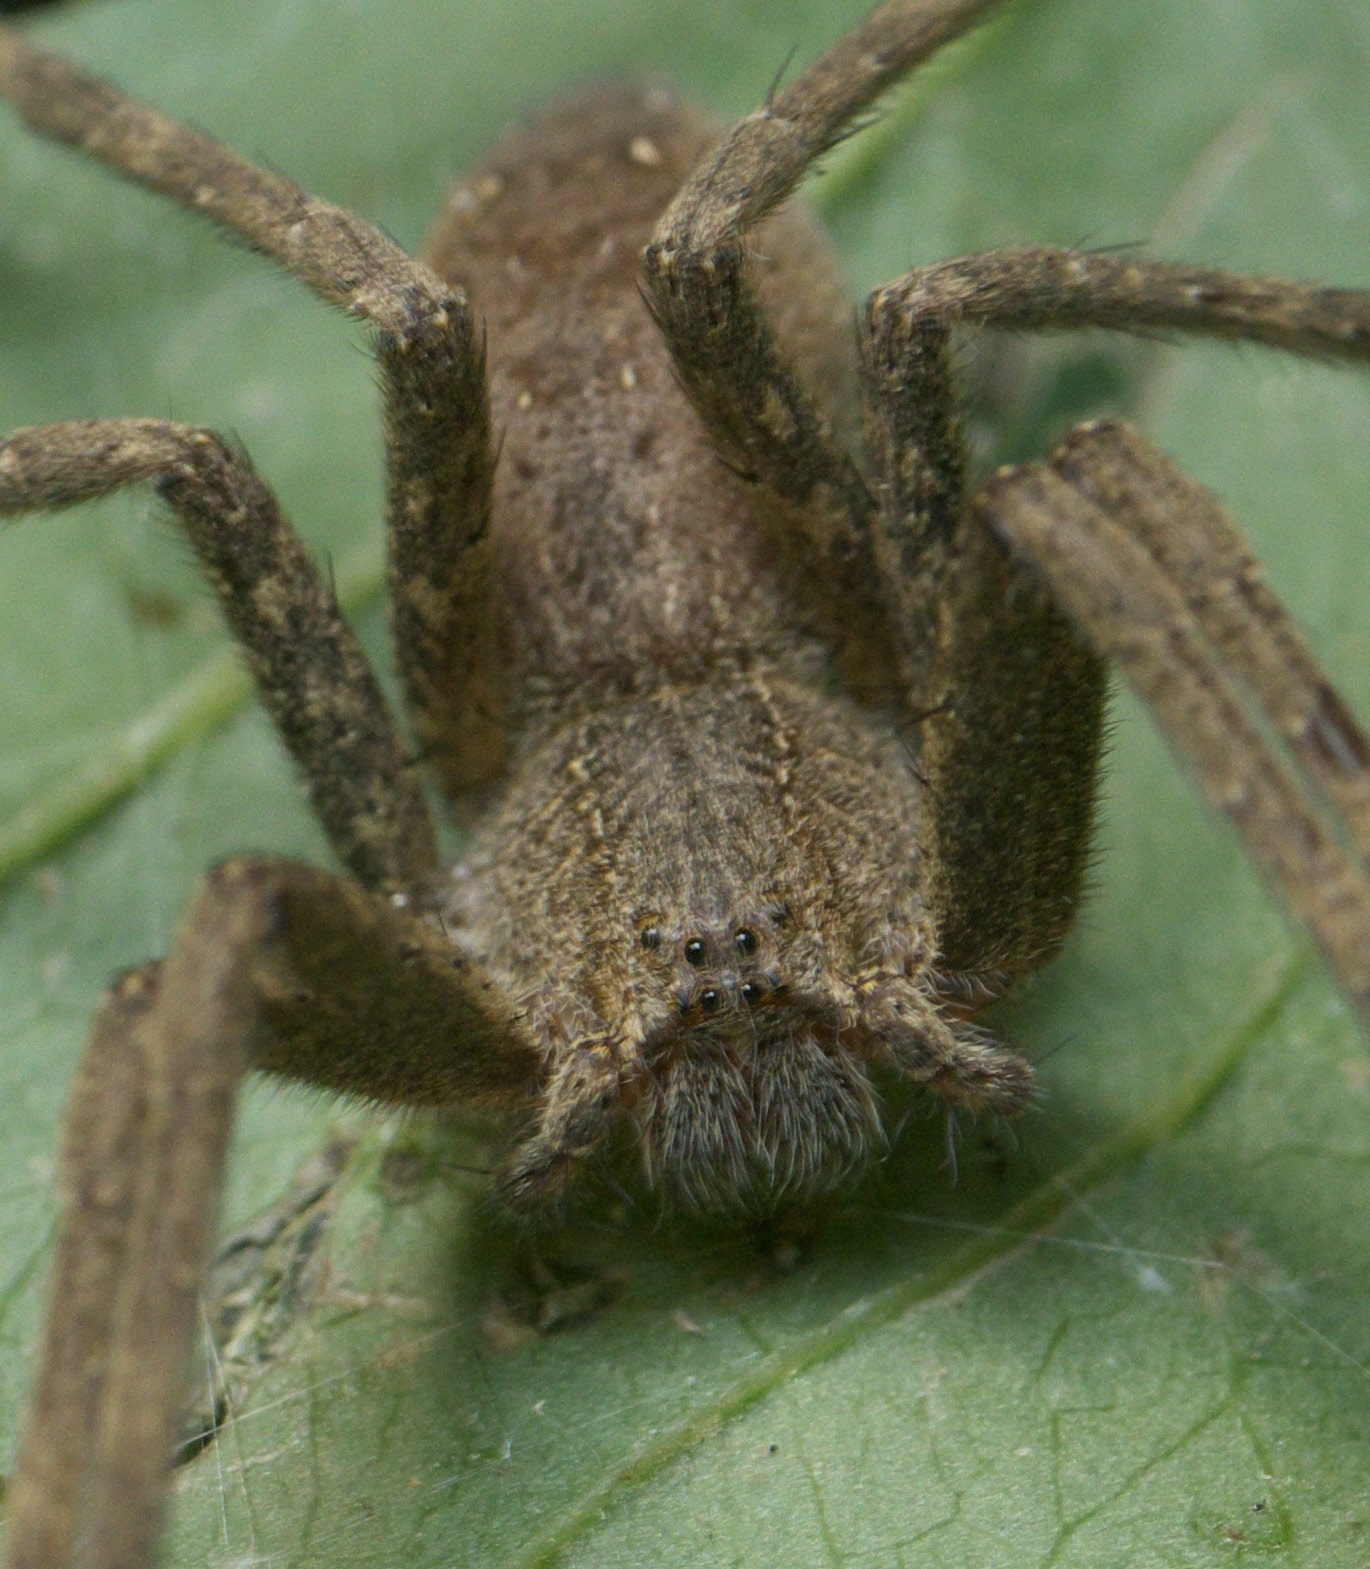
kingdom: Animalia
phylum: Arthropoda
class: Arachnida
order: Araneae
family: Pisauridae
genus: Pisaurina
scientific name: Pisaurina mira
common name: American nursery web spider
